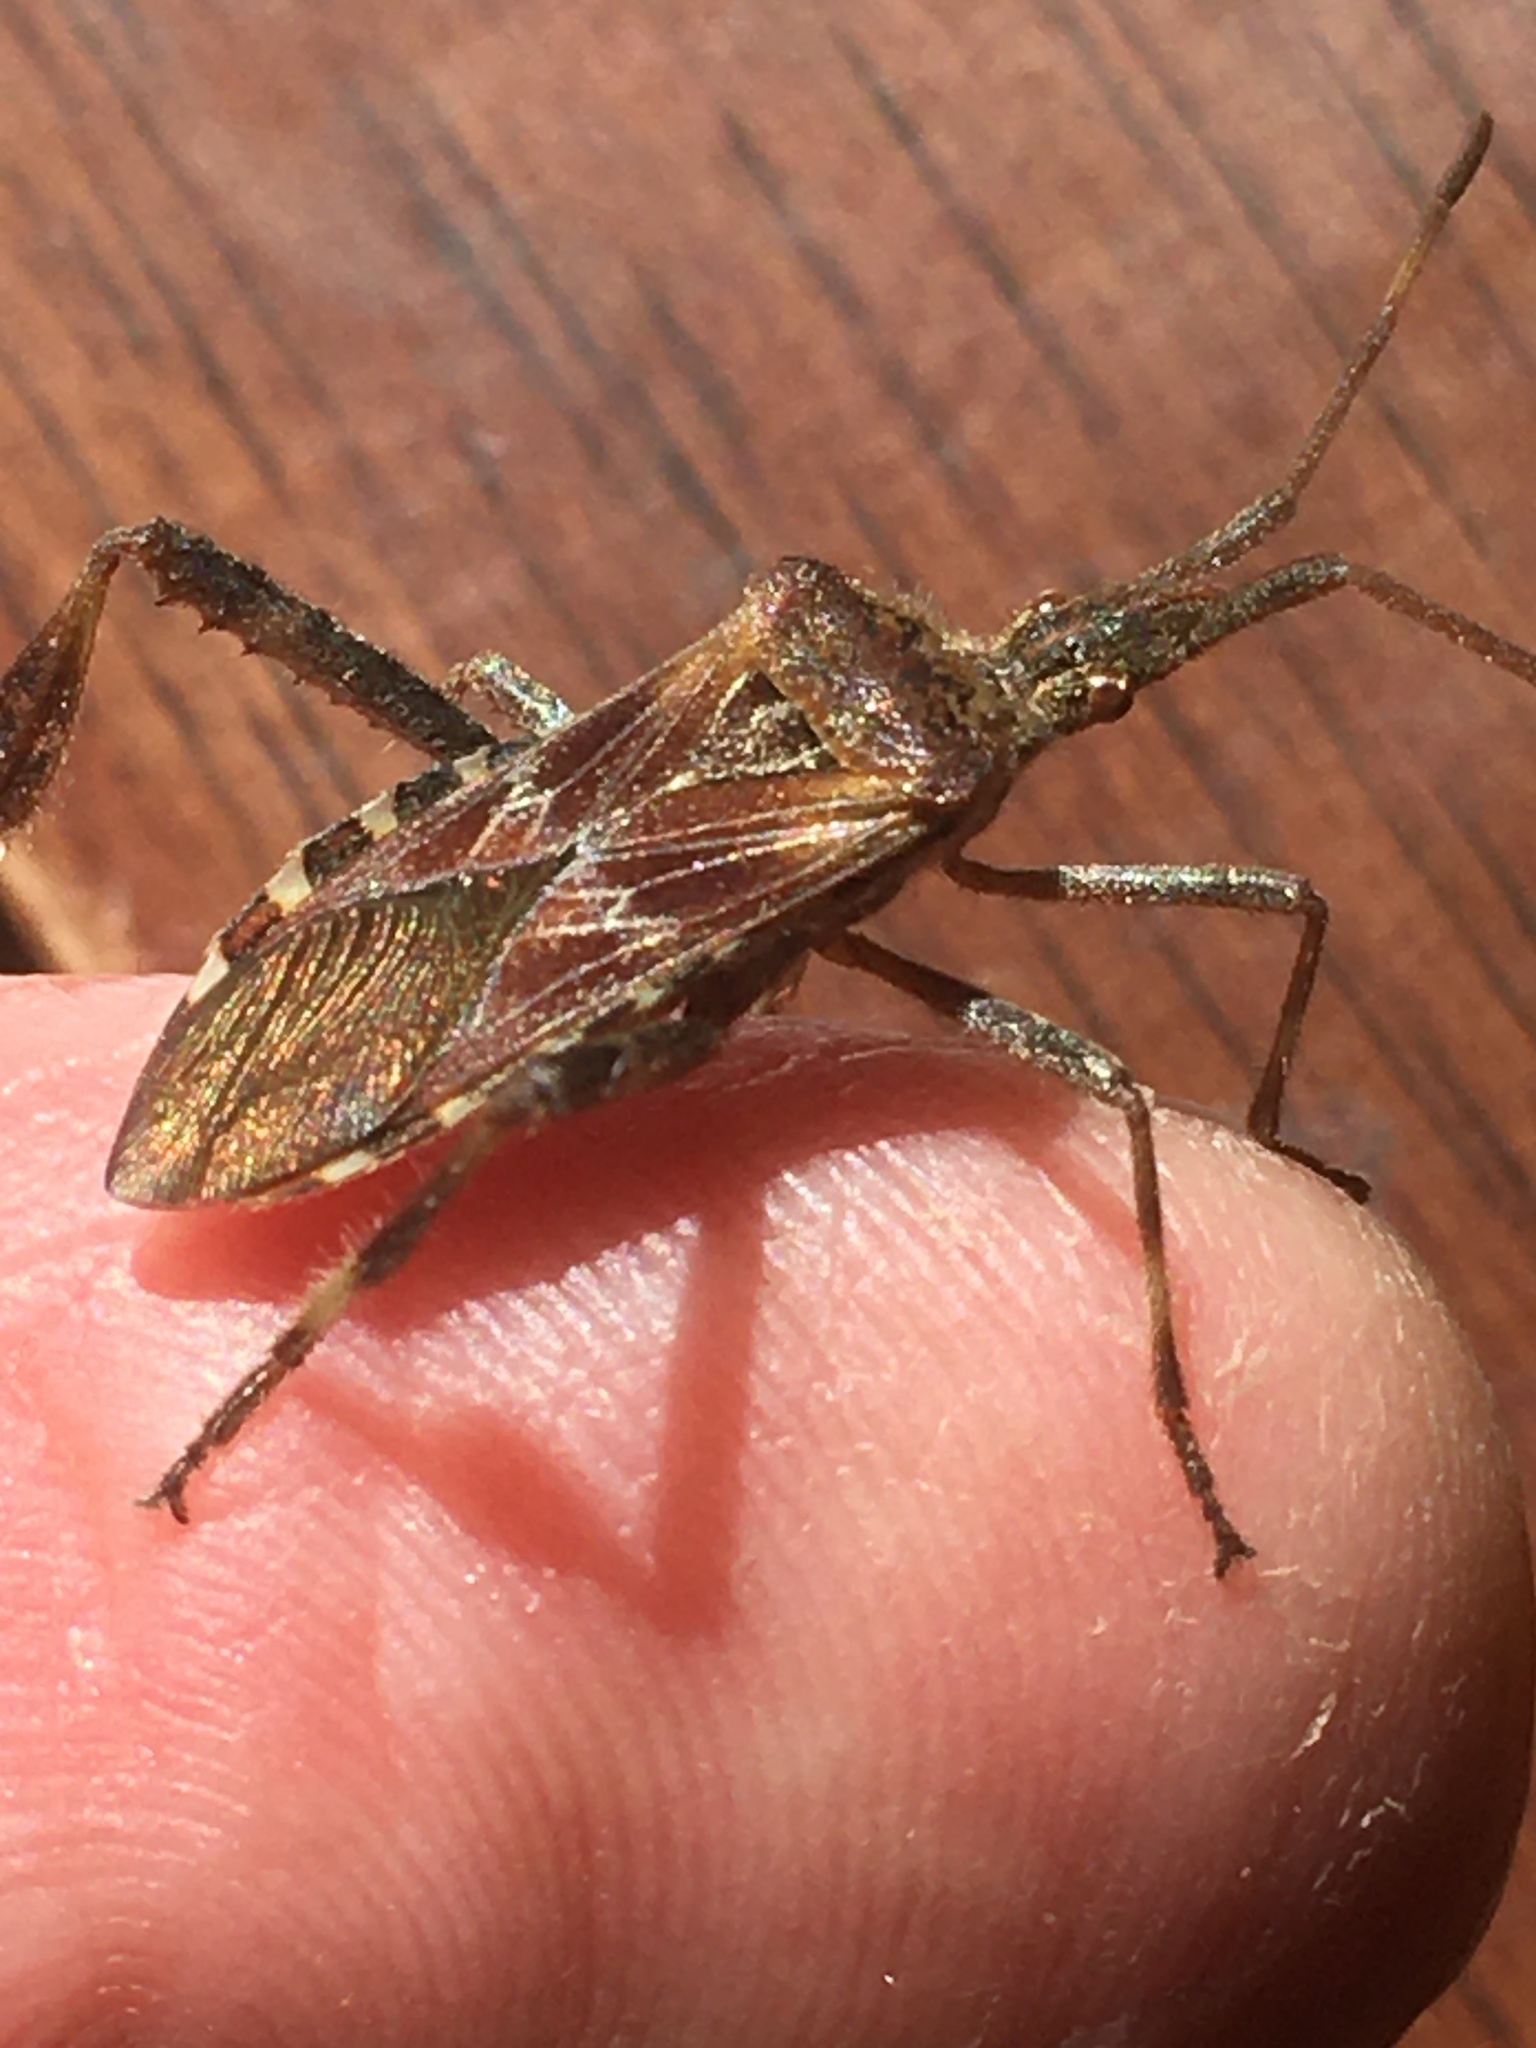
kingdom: Animalia
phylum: Arthropoda
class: Insecta
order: Hemiptera
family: Coreidae
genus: Leptoglossus
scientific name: Leptoglossus occidentalis
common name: Western conifer-seed bug
